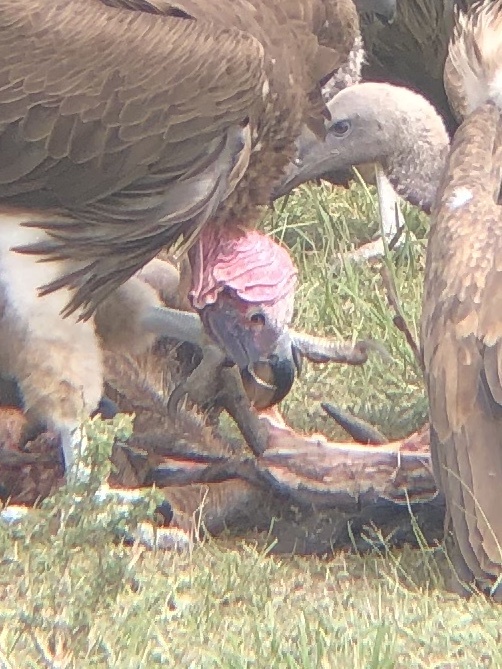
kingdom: Animalia
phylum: Chordata
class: Aves
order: Accipitriformes
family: Accipitridae
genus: Torgos
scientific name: Torgos tracheliotos
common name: Lappet-faced vulture
